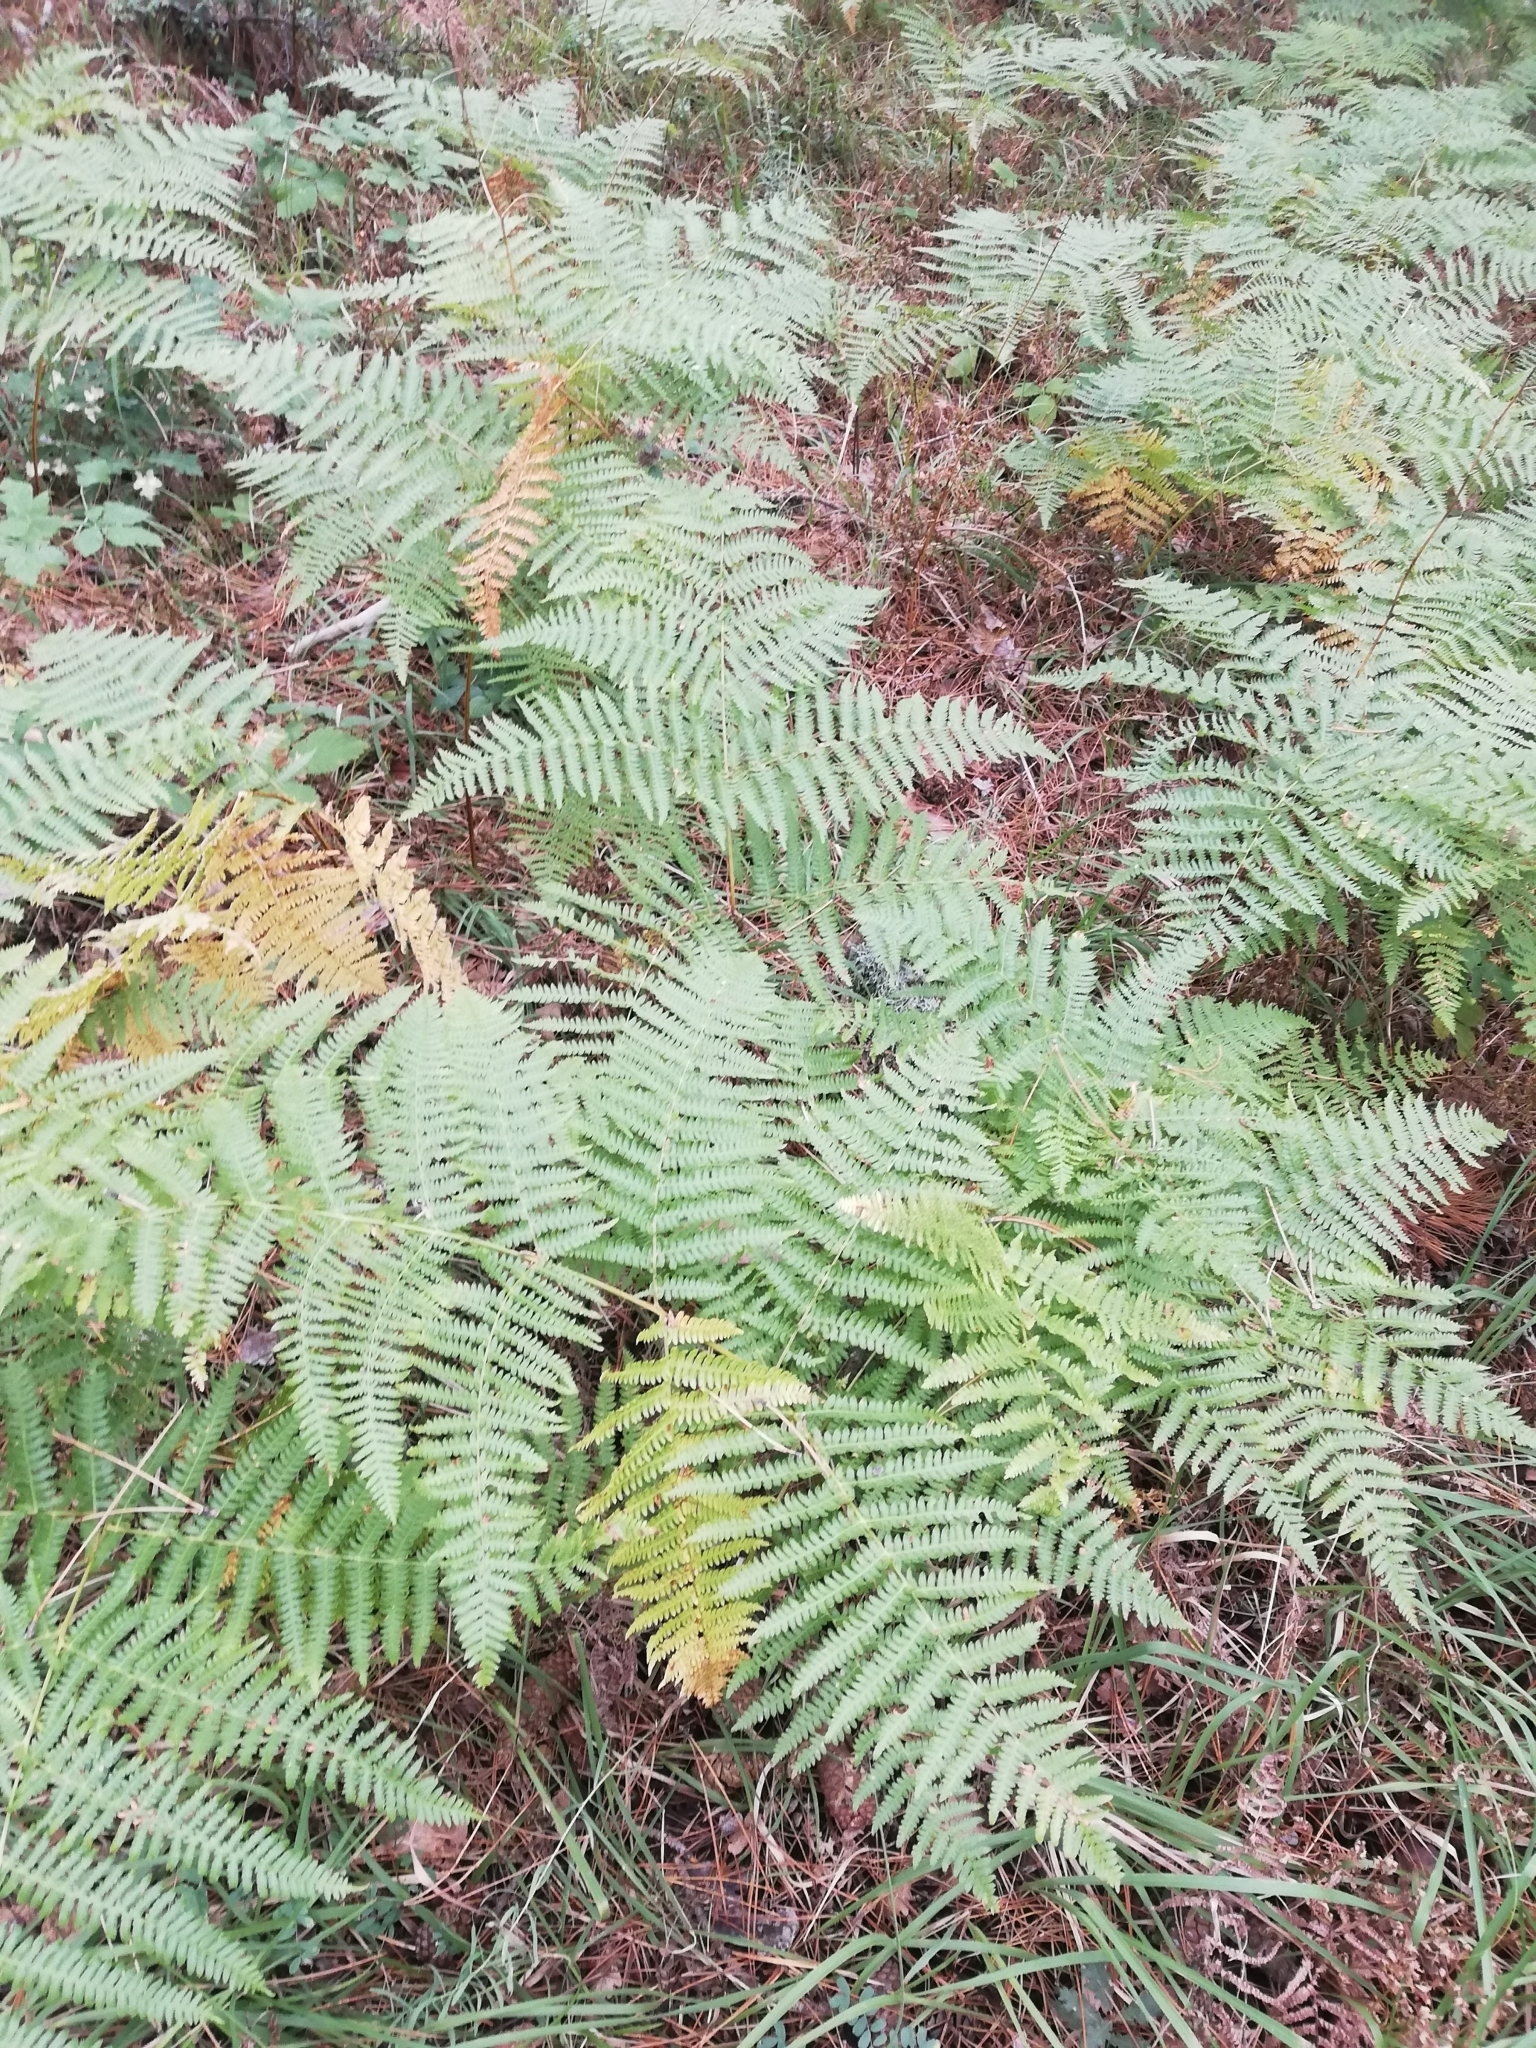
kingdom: Plantae
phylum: Tracheophyta
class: Polypodiopsida
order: Polypodiales
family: Dennstaedtiaceae
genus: Pteridium
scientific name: Pteridium tauricum
